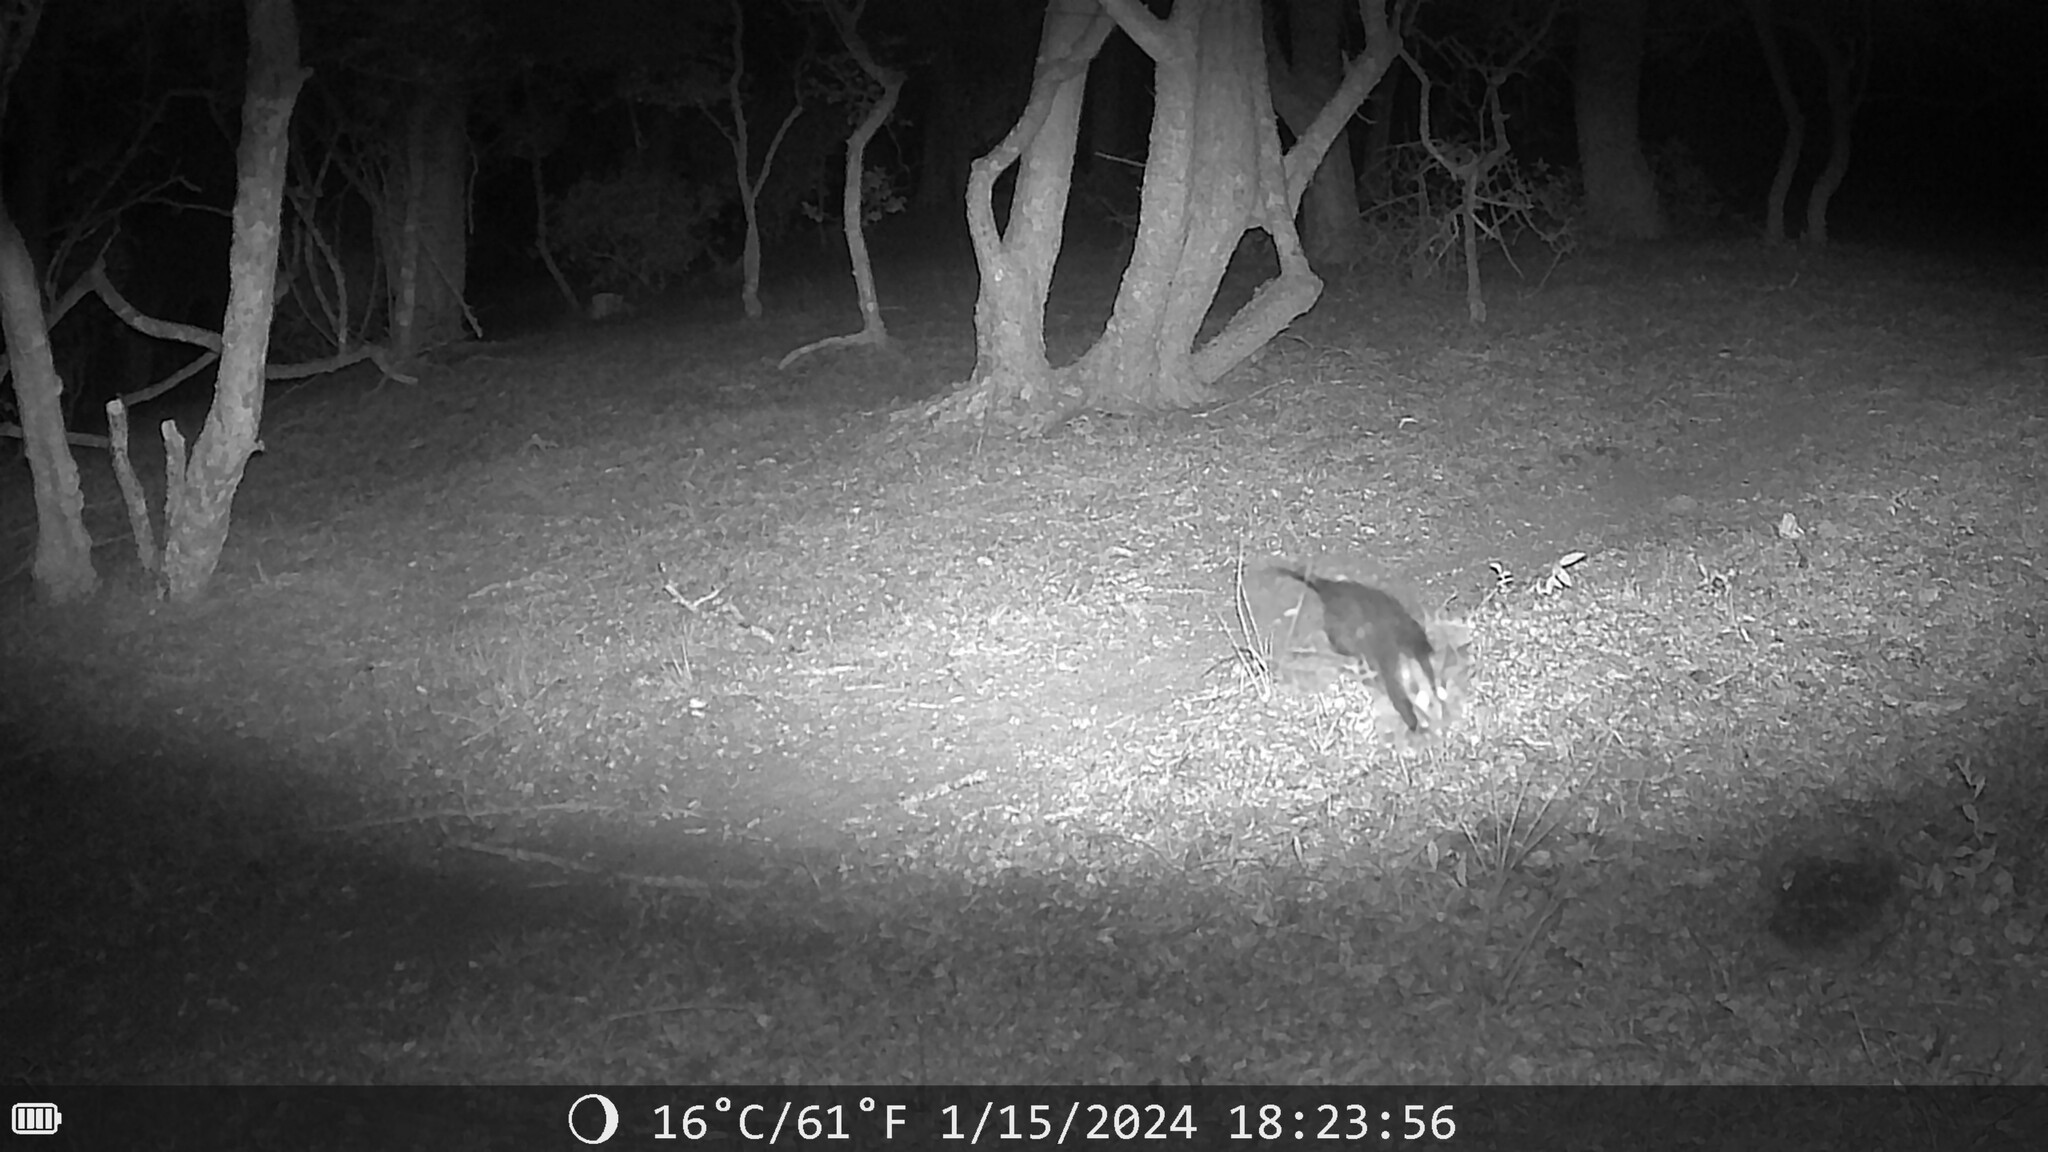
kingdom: Animalia
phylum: Chordata
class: Mammalia
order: Didelphimorphia
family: Didelphidae
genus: Didelphis
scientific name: Didelphis albiventris
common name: White-eared opossum
